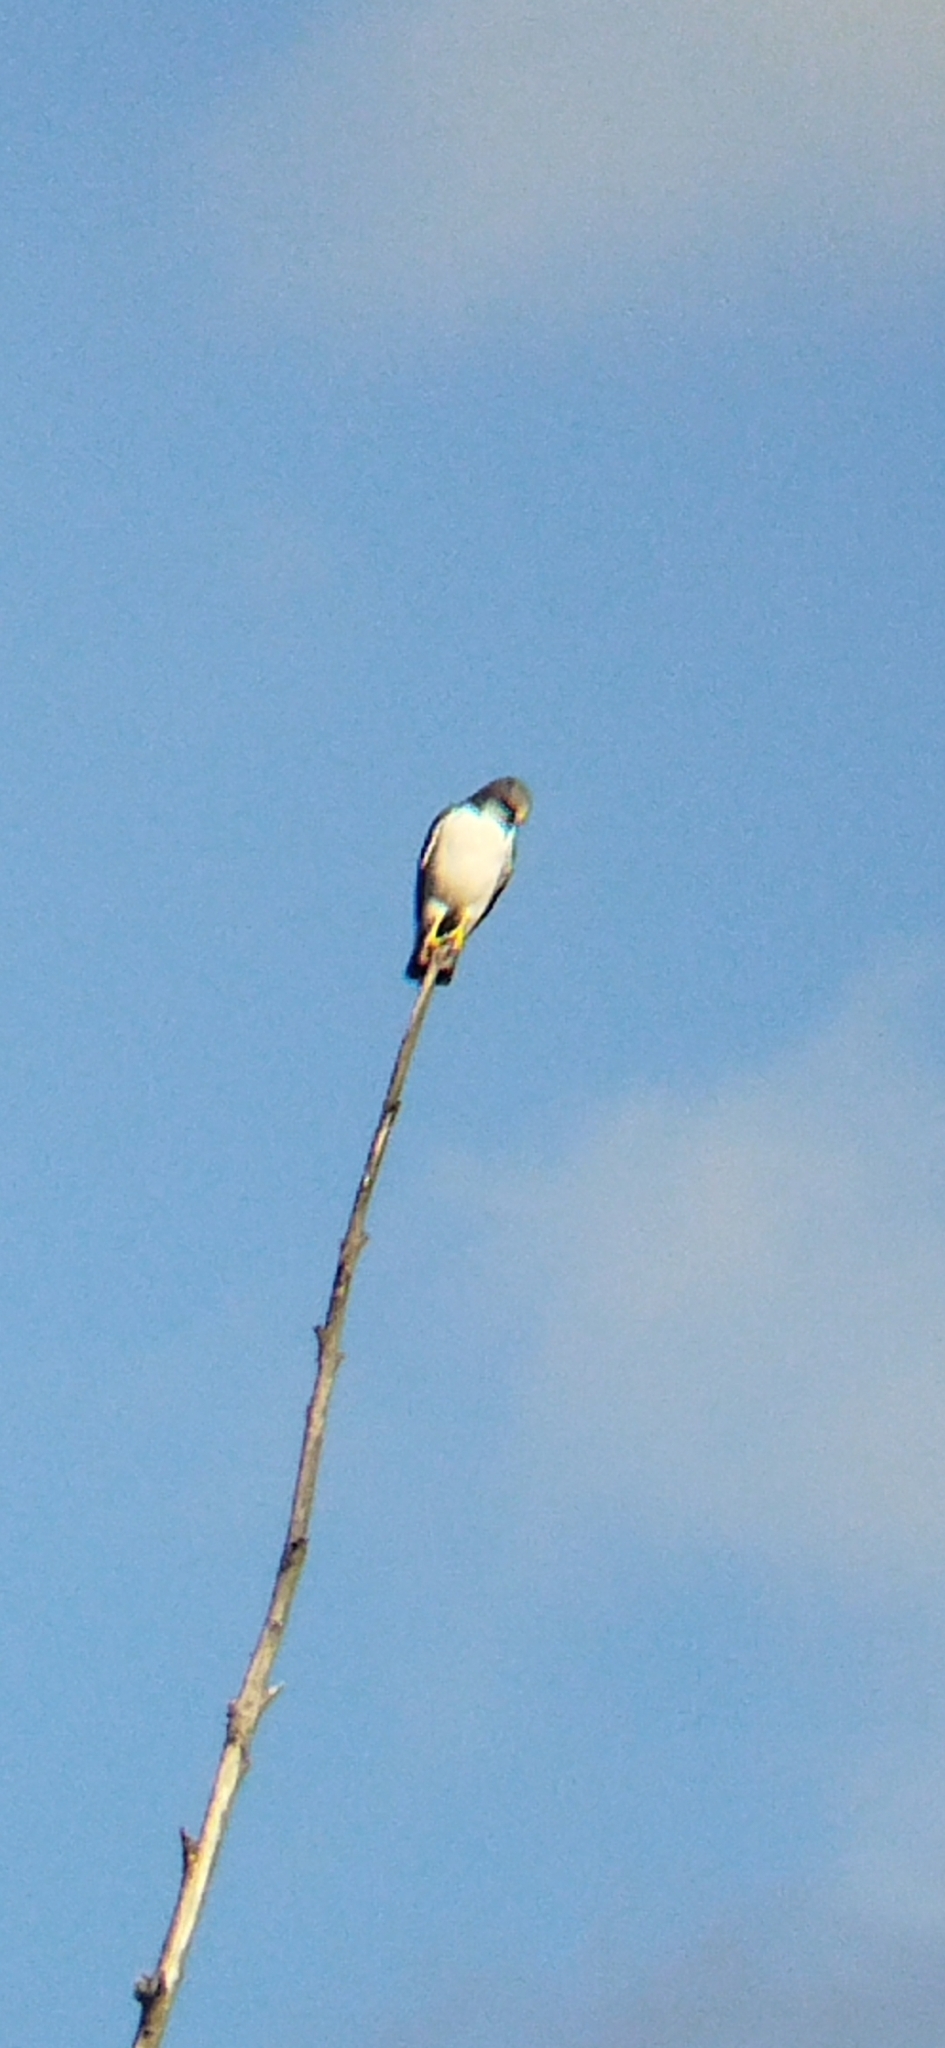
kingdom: Animalia
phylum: Chordata
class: Aves
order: Accipitriformes
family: Accipitridae
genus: Buteo
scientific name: Buteo polyosoma
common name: Variable hawk
